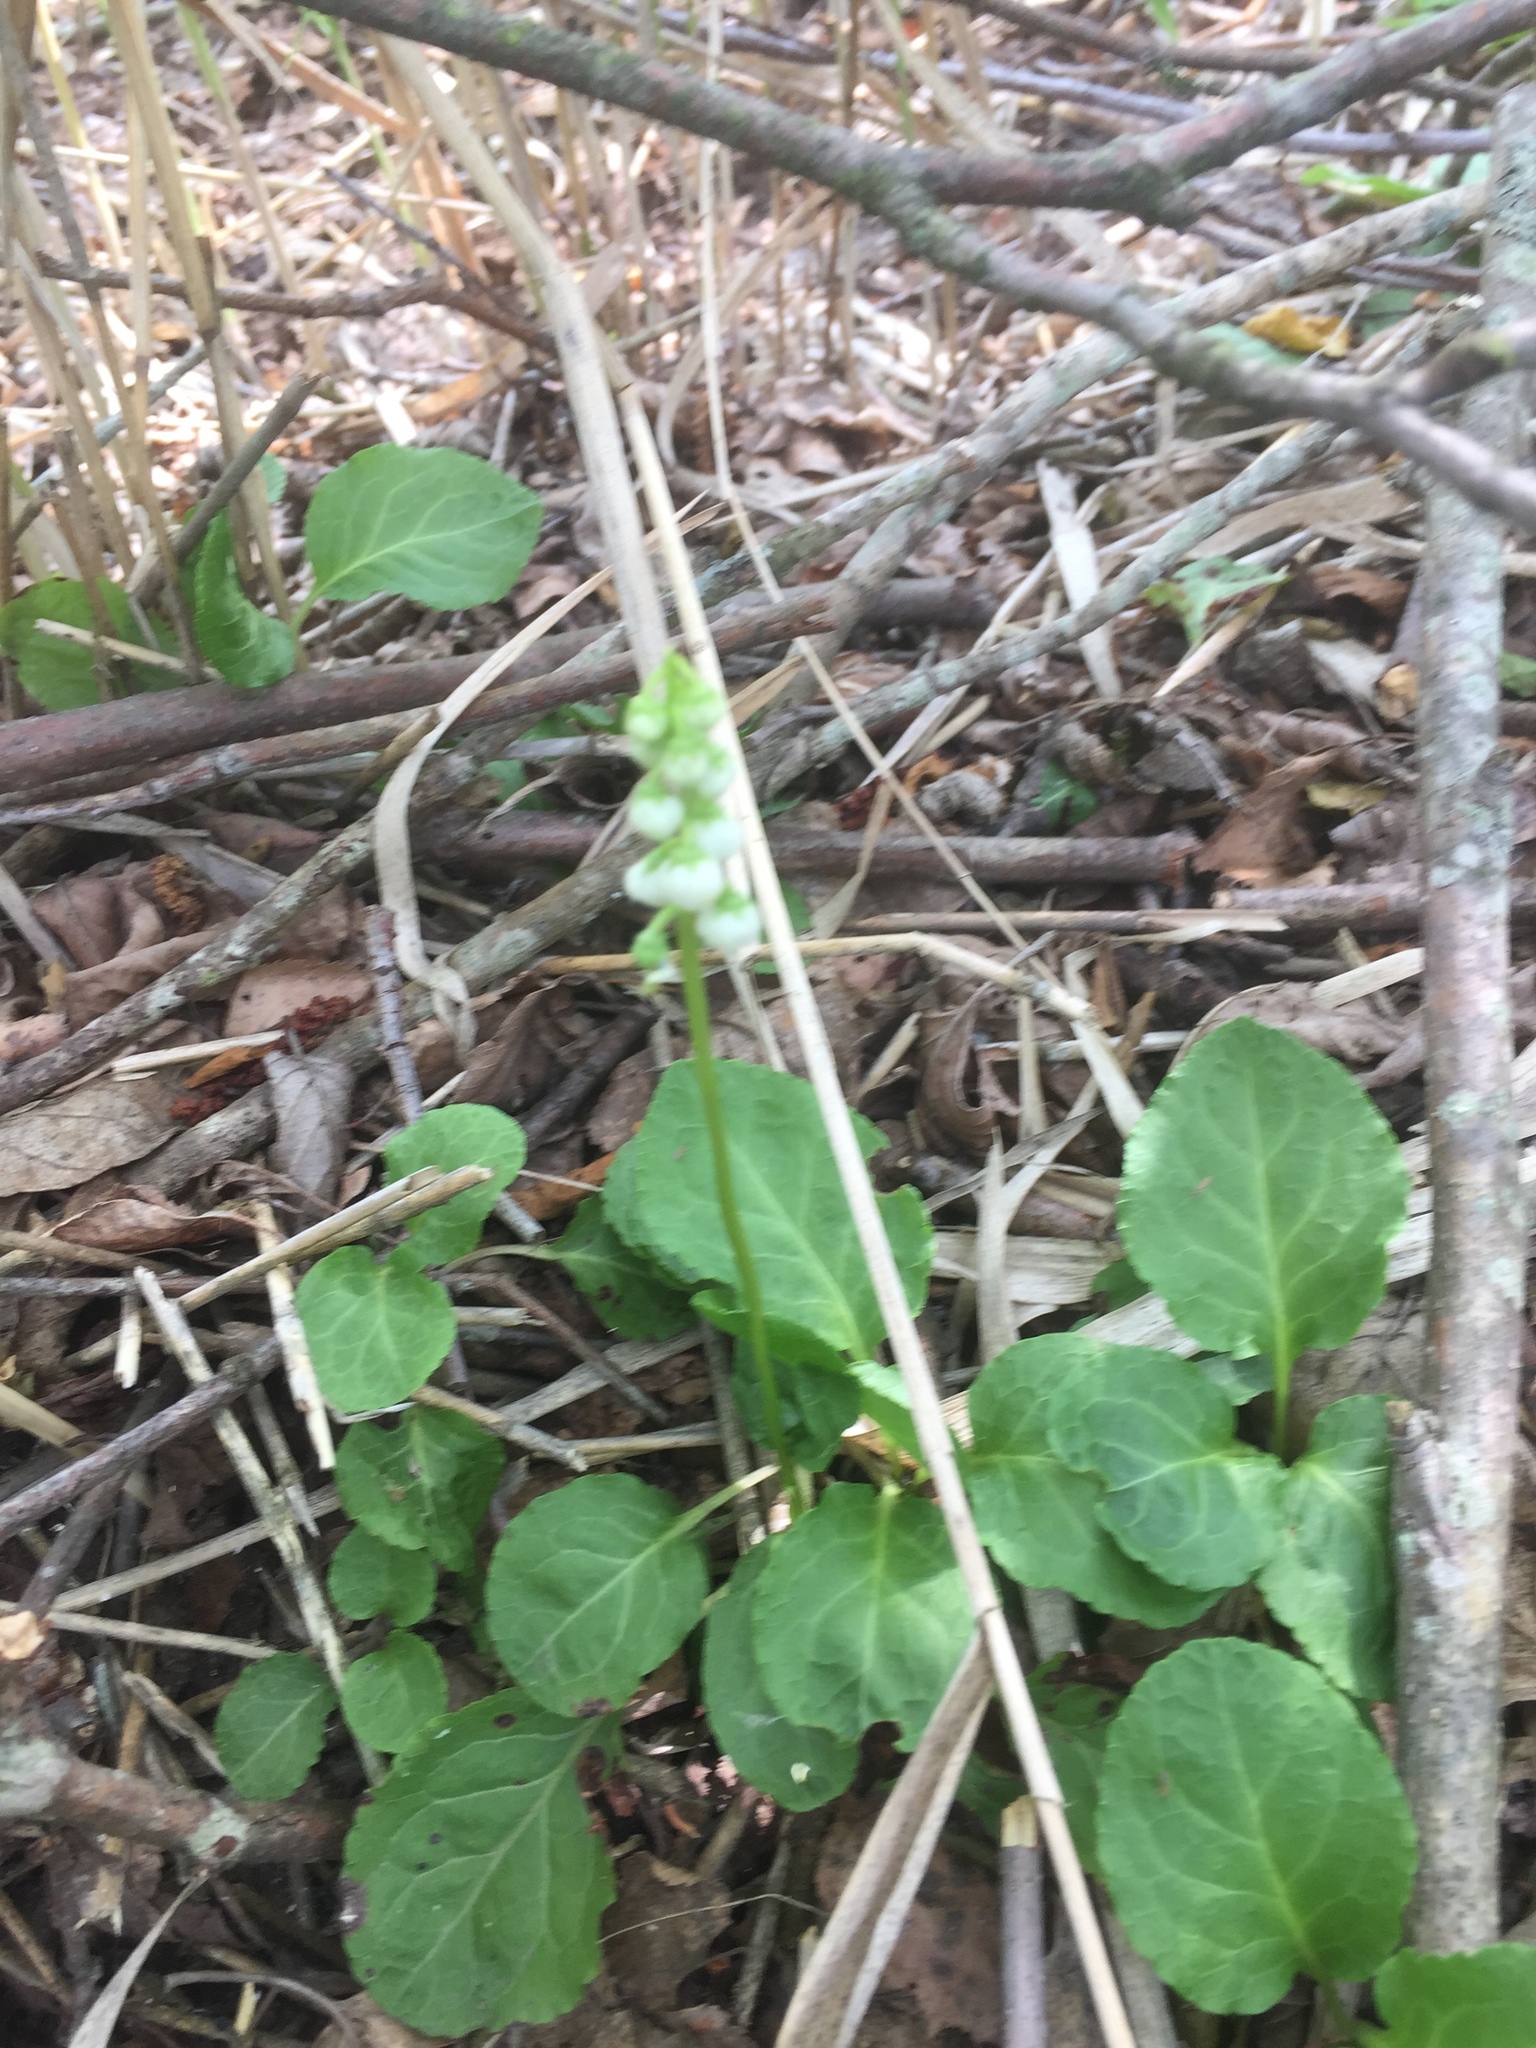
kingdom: Plantae
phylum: Tracheophyta
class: Magnoliopsida
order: Ericales
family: Ericaceae
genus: Pyrola
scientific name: Pyrola minor
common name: Common wintergreen
